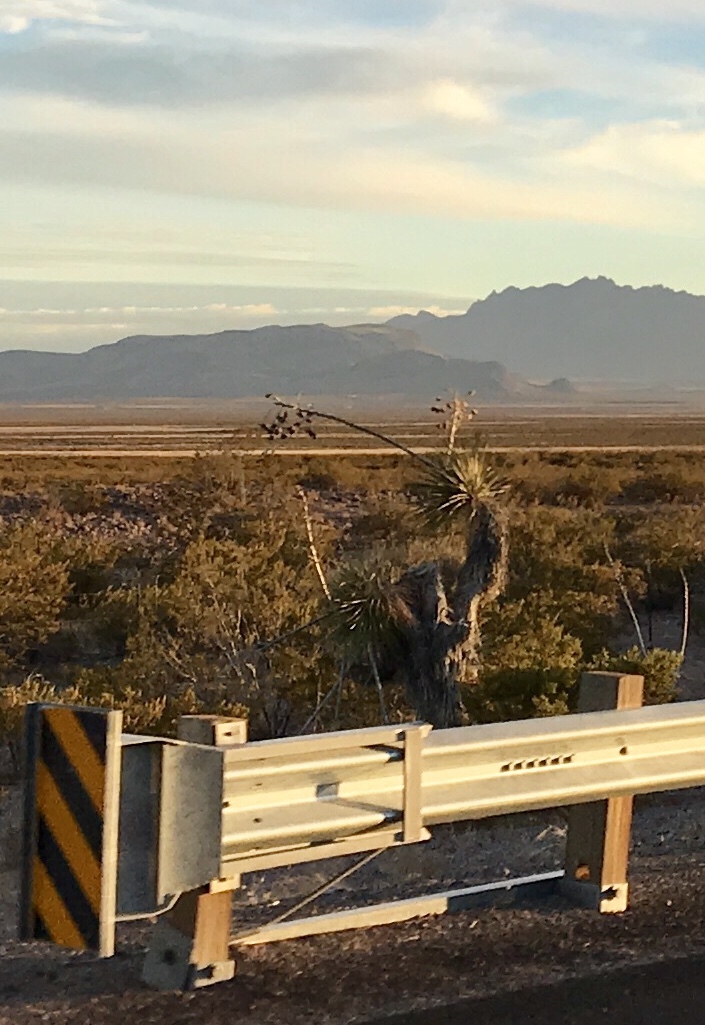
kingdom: Plantae
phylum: Tracheophyta
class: Liliopsida
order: Asparagales
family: Asparagaceae
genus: Yucca
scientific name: Yucca elata
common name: Palmella
